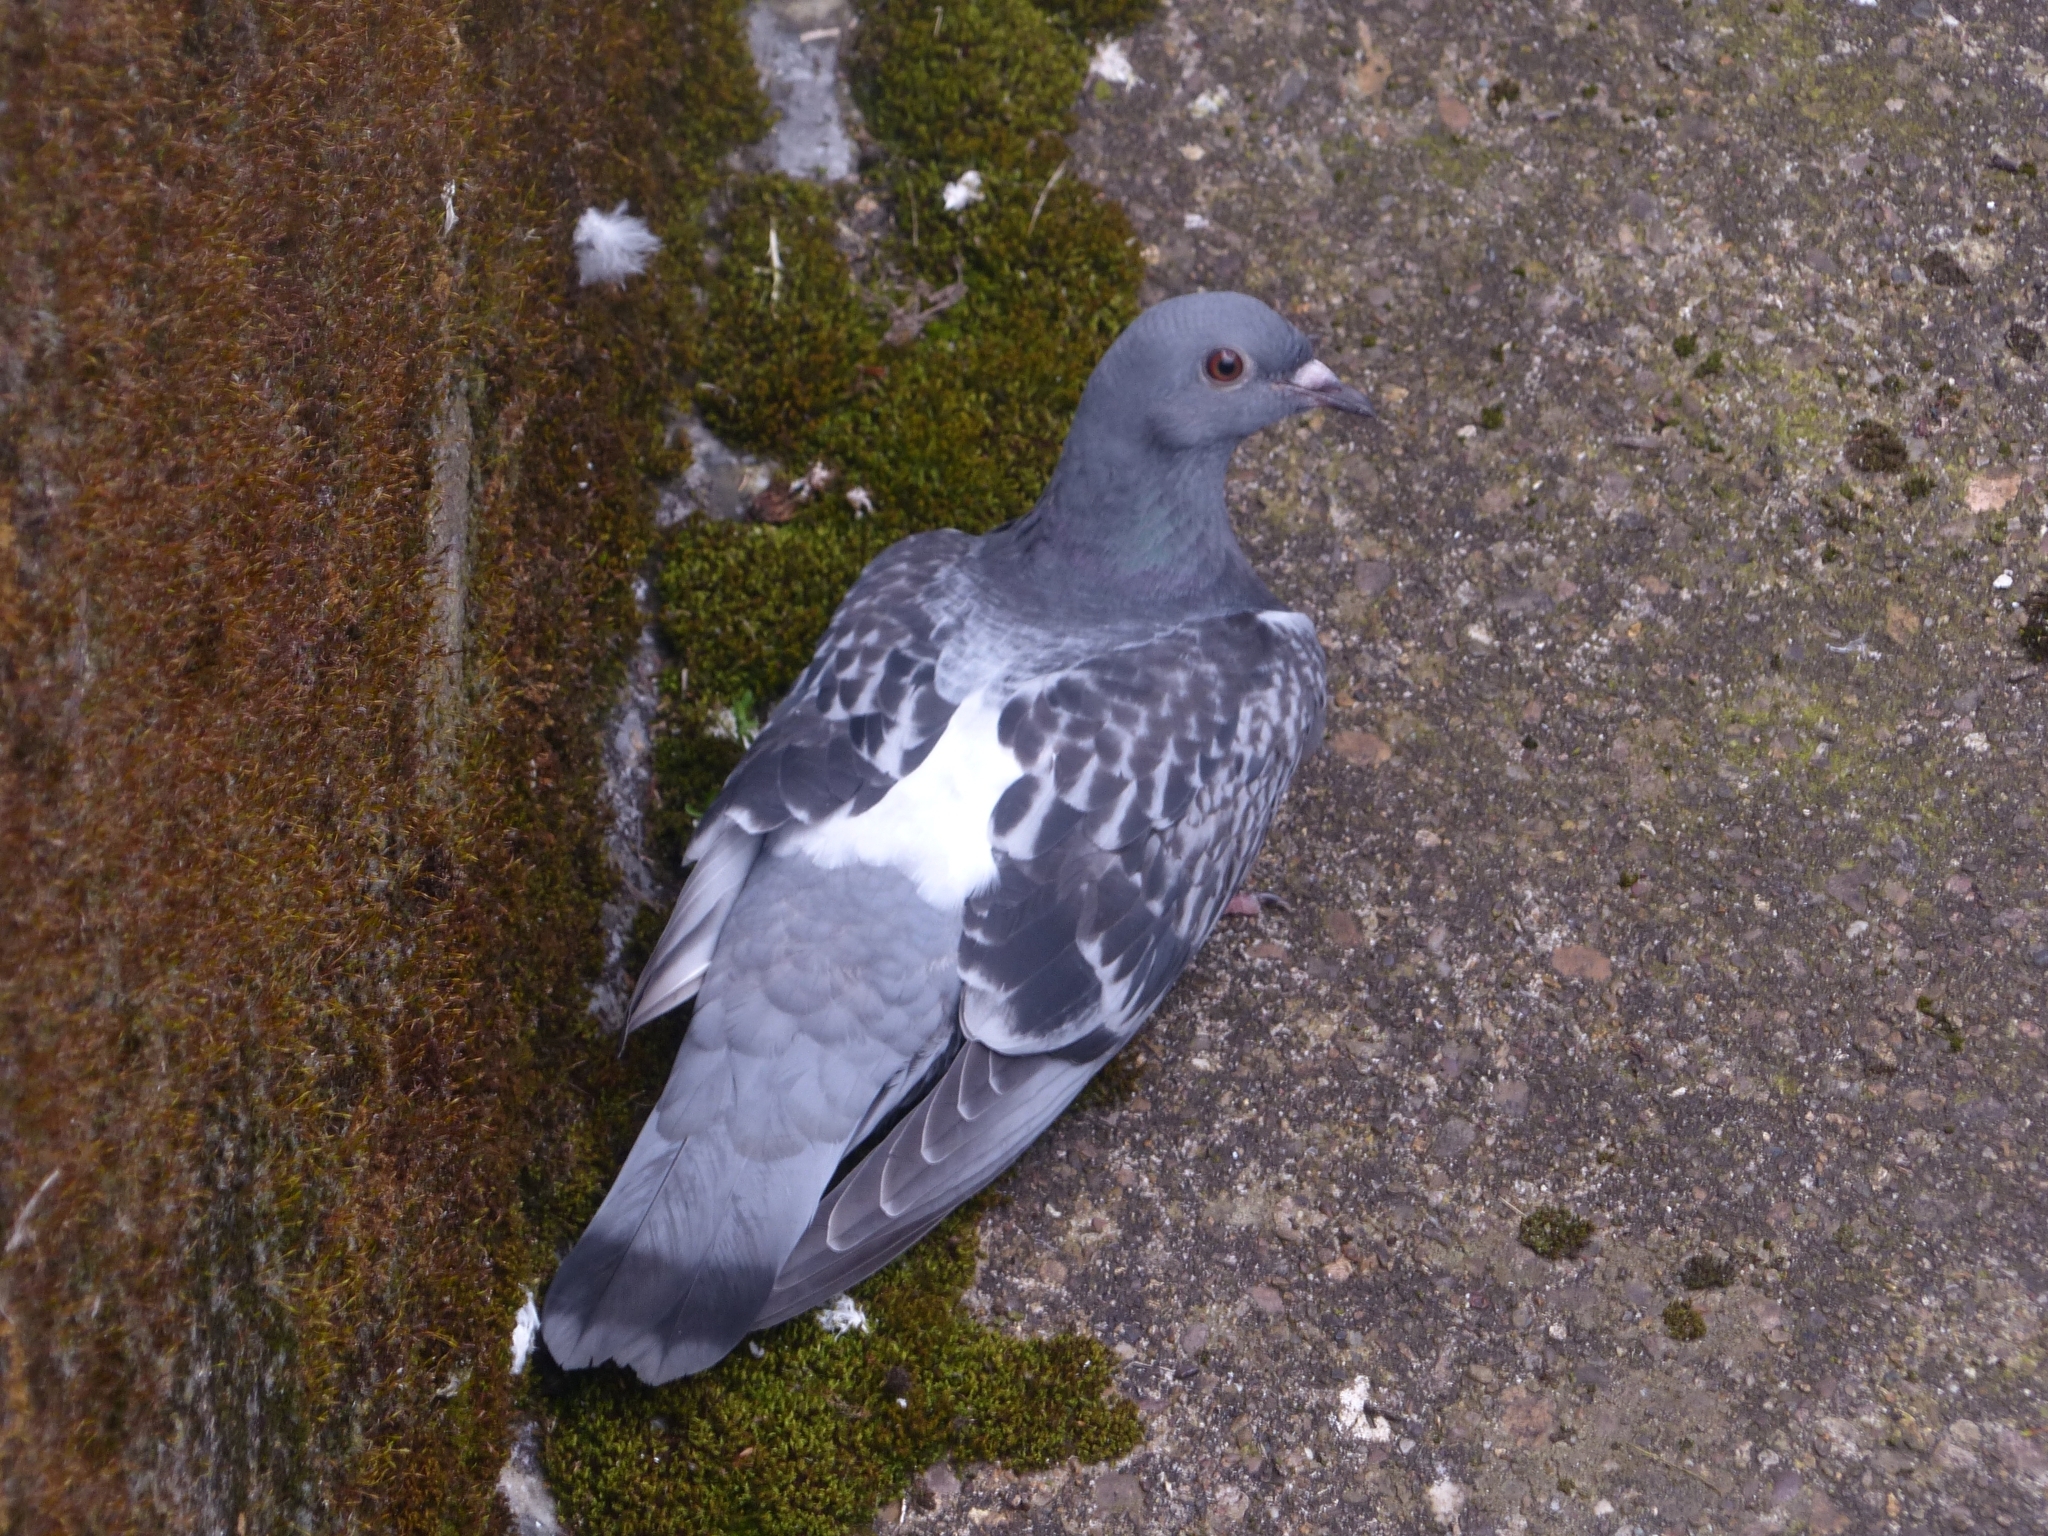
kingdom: Animalia
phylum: Chordata
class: Aves
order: Columbiformes
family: Columbidae
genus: Columba
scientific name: Columba livia
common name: Rock pigeon
